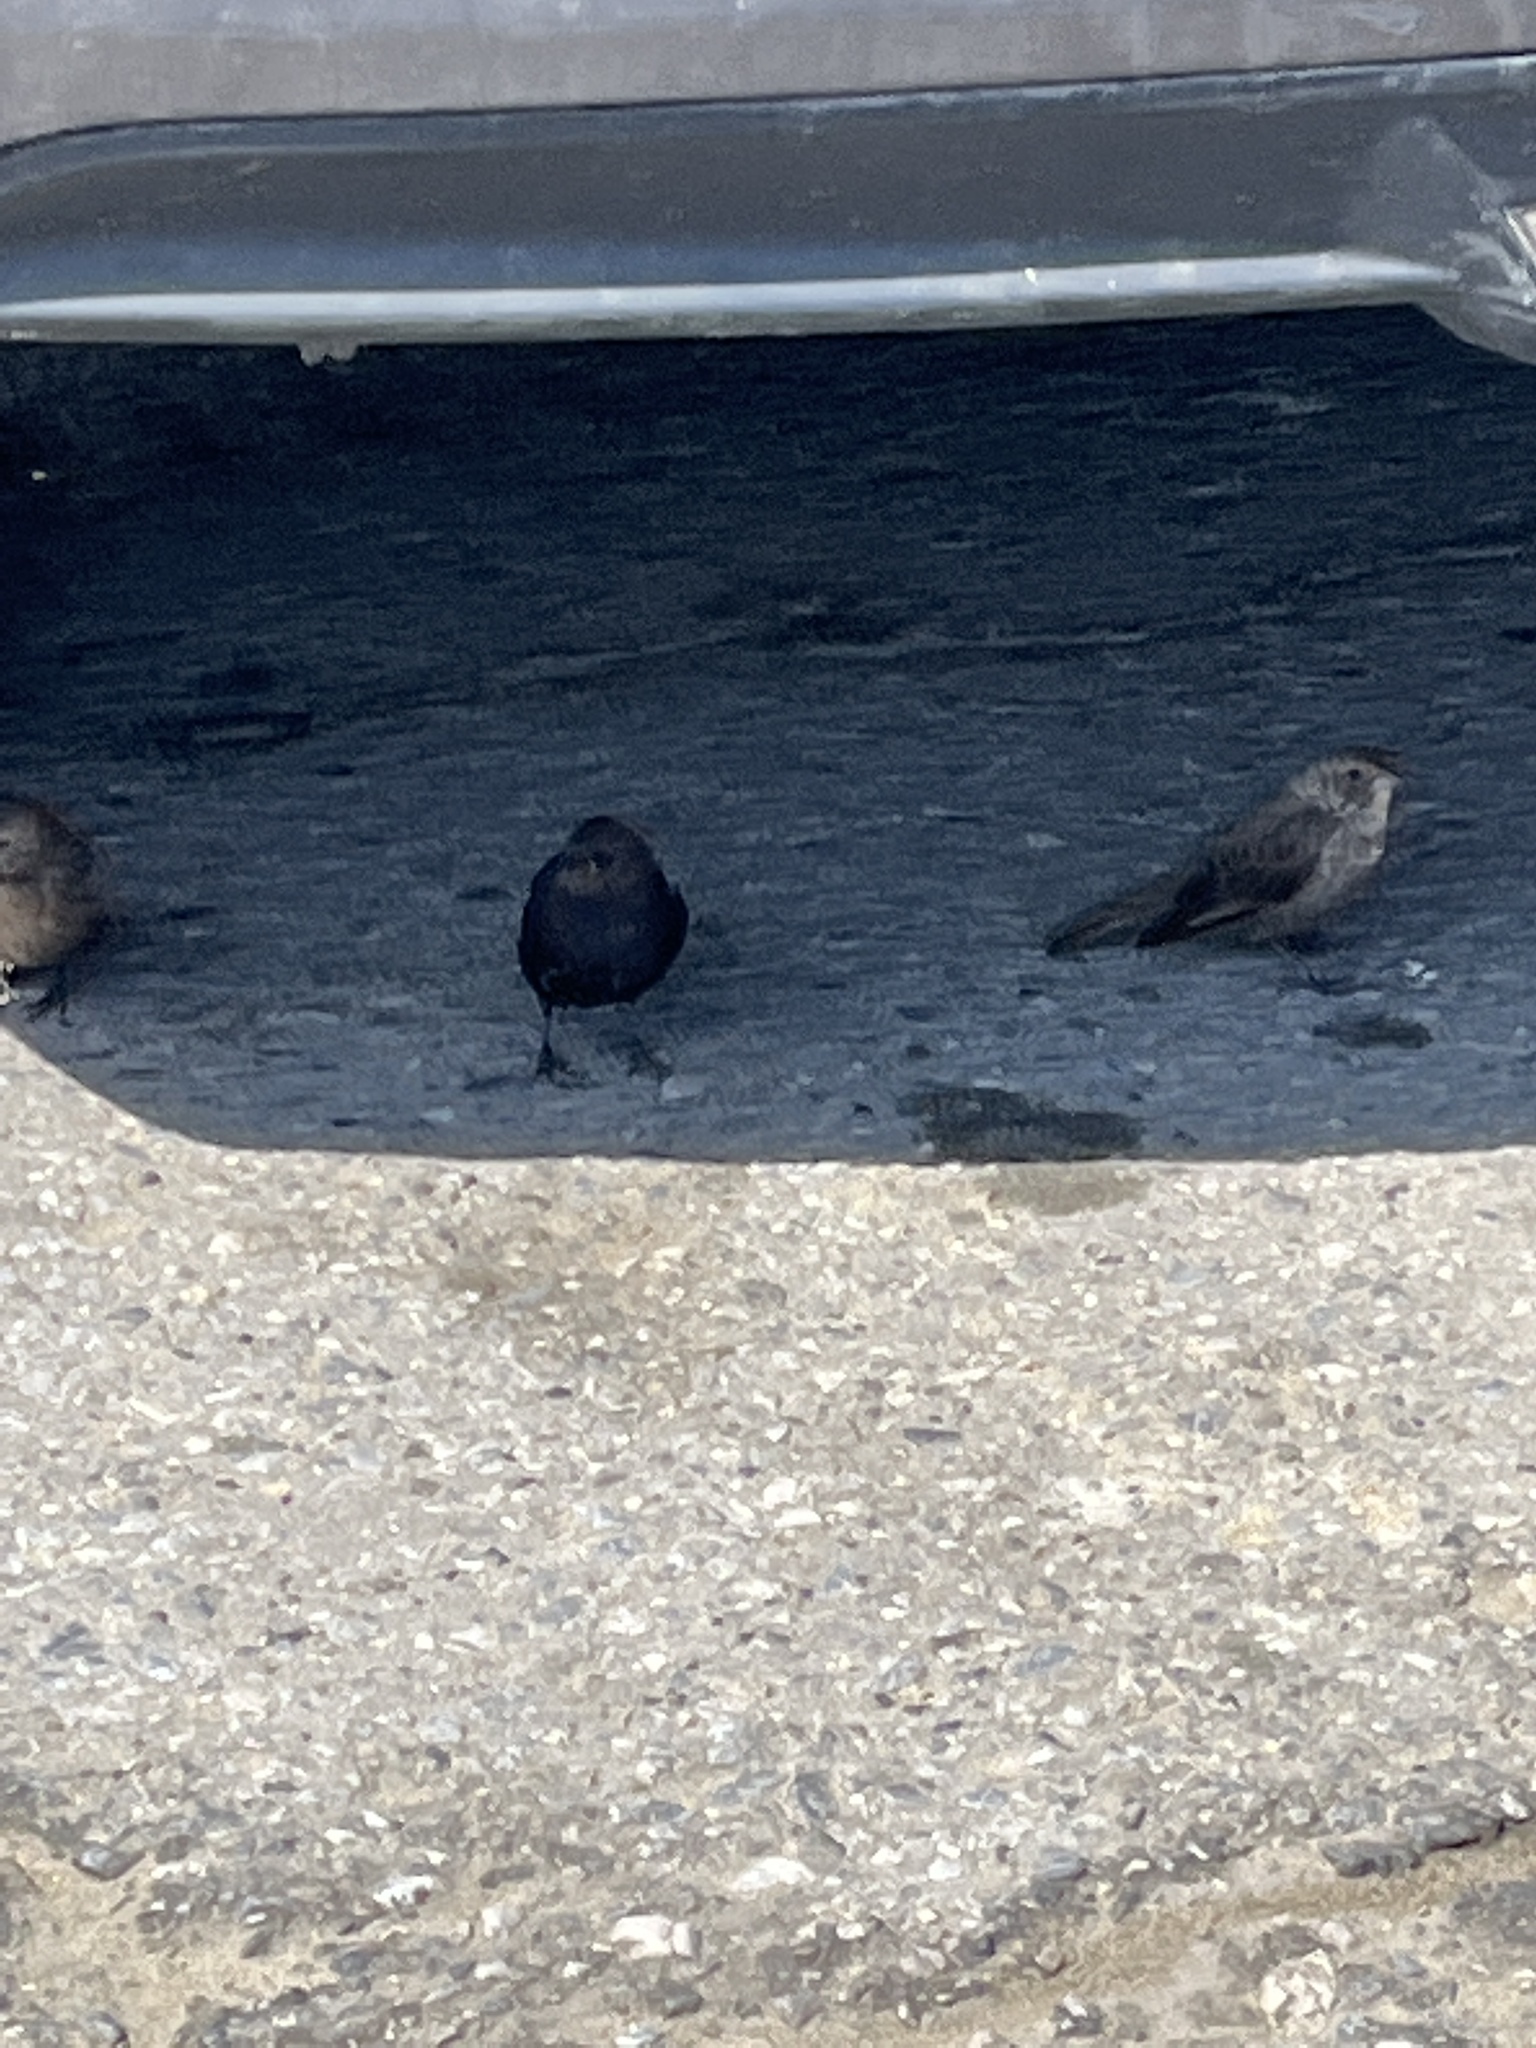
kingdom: Animalia
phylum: Chordata
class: Aves
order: Passeriformes
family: Icteridae
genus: Molothrus
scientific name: Molothrus ater
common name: Brown-headed cowbird
